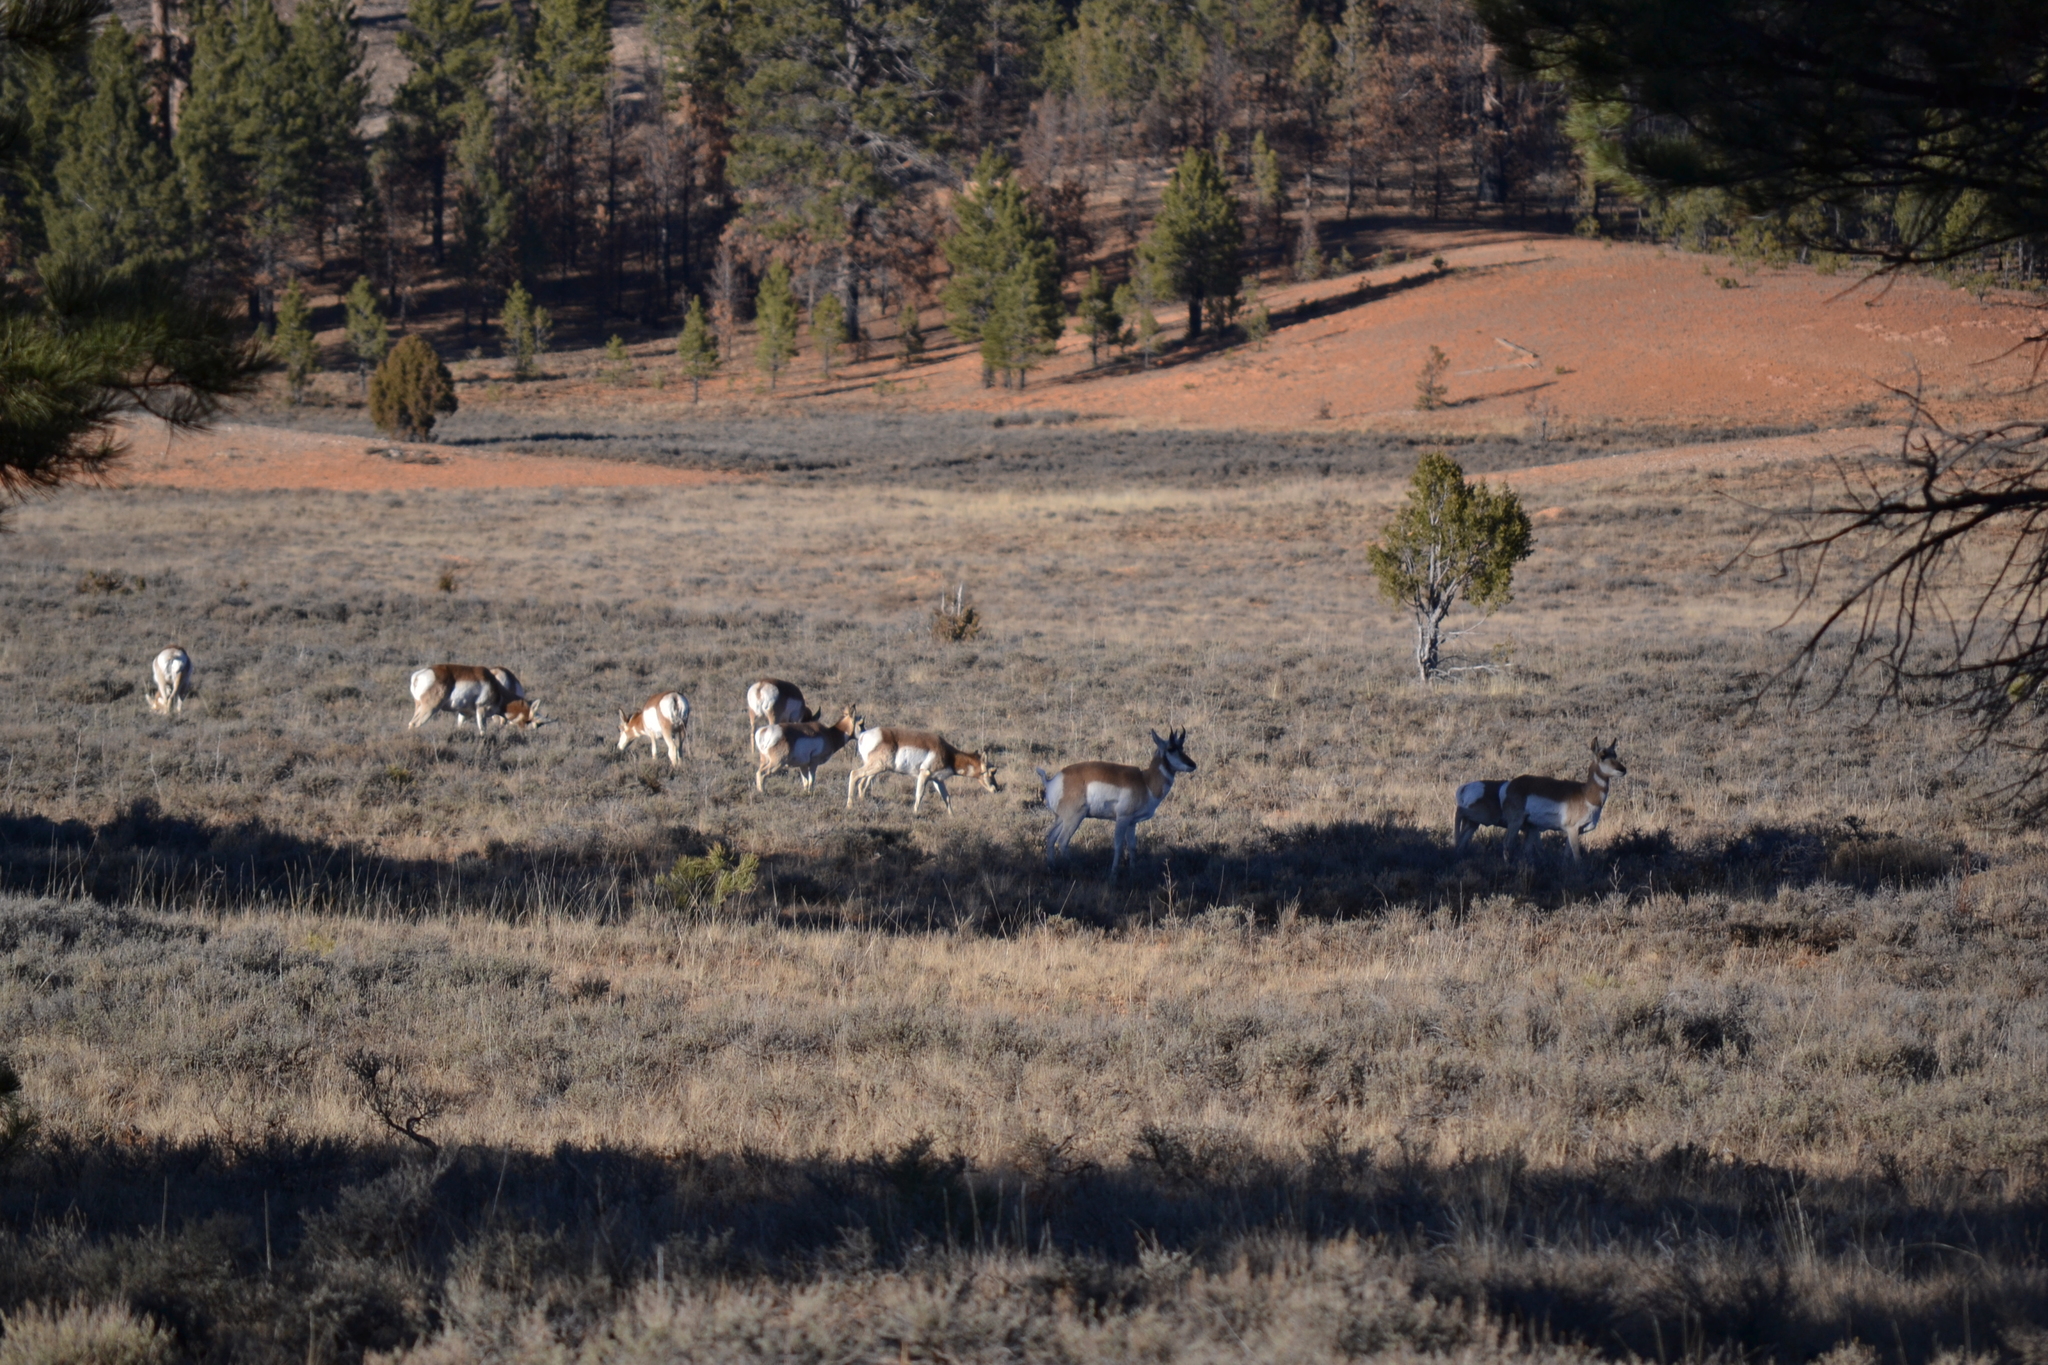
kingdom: Animalia
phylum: Chordata
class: Mammalia
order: Artiodactyla
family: Antilocapridae
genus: Antilocapra
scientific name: Antilocapra americana
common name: Pronghorn
